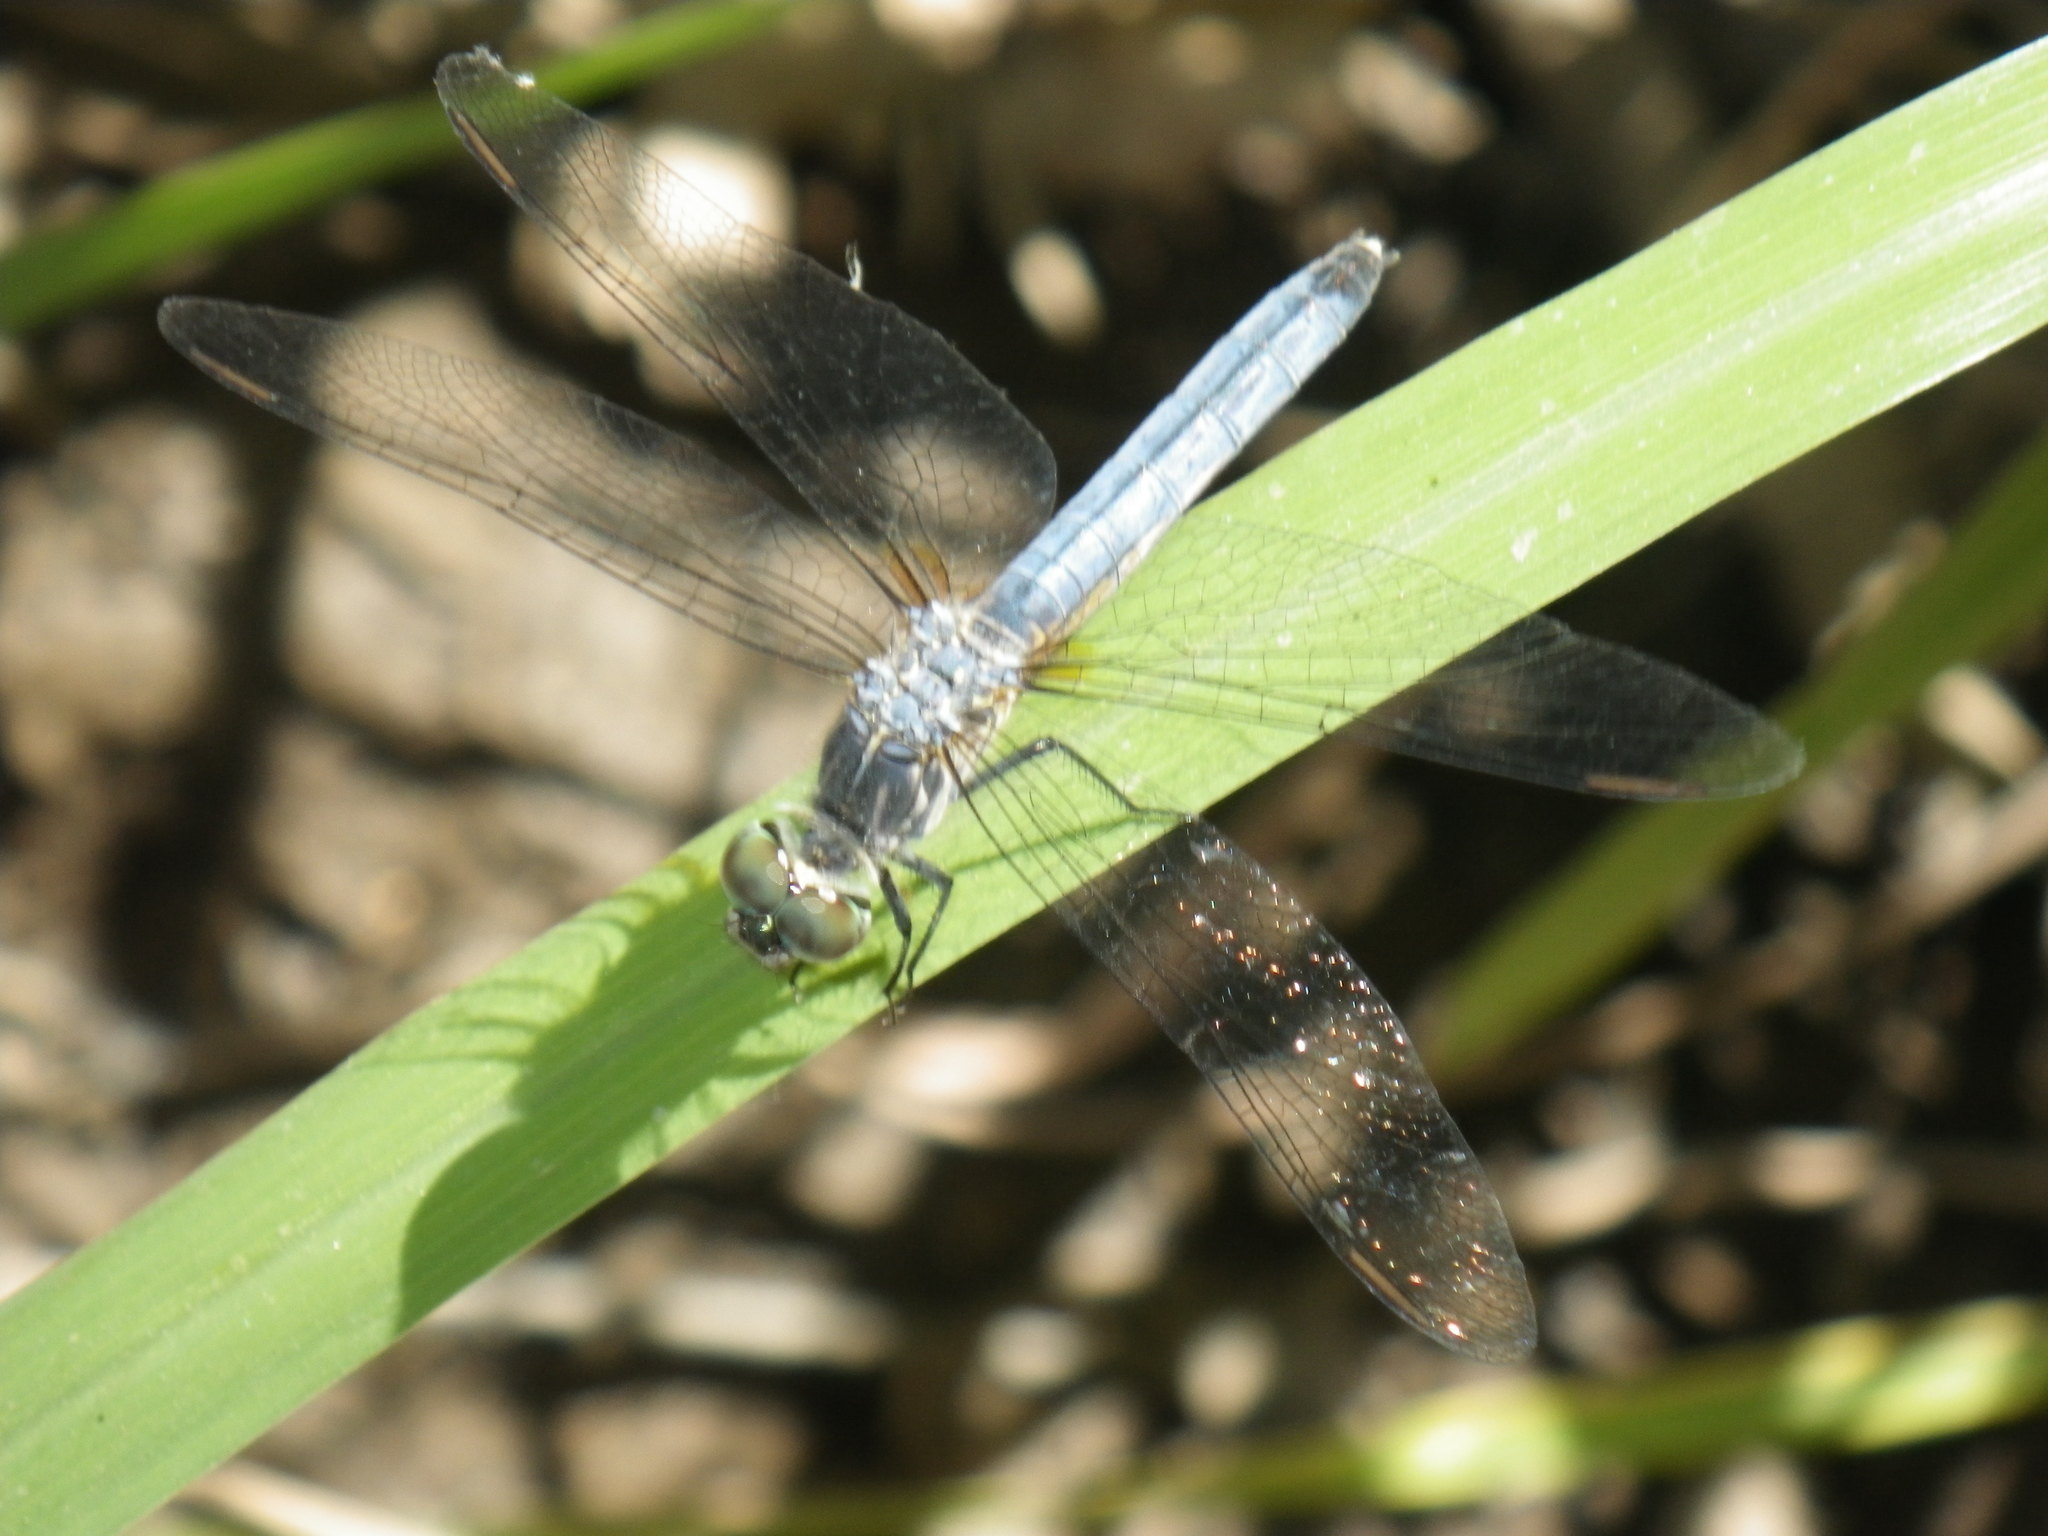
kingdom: Animalia
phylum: Arthropoda
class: Insecta
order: Odonata
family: Libellulidae
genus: Pachydiplax
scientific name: Pachydiplax longipennis
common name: Blue dasher
